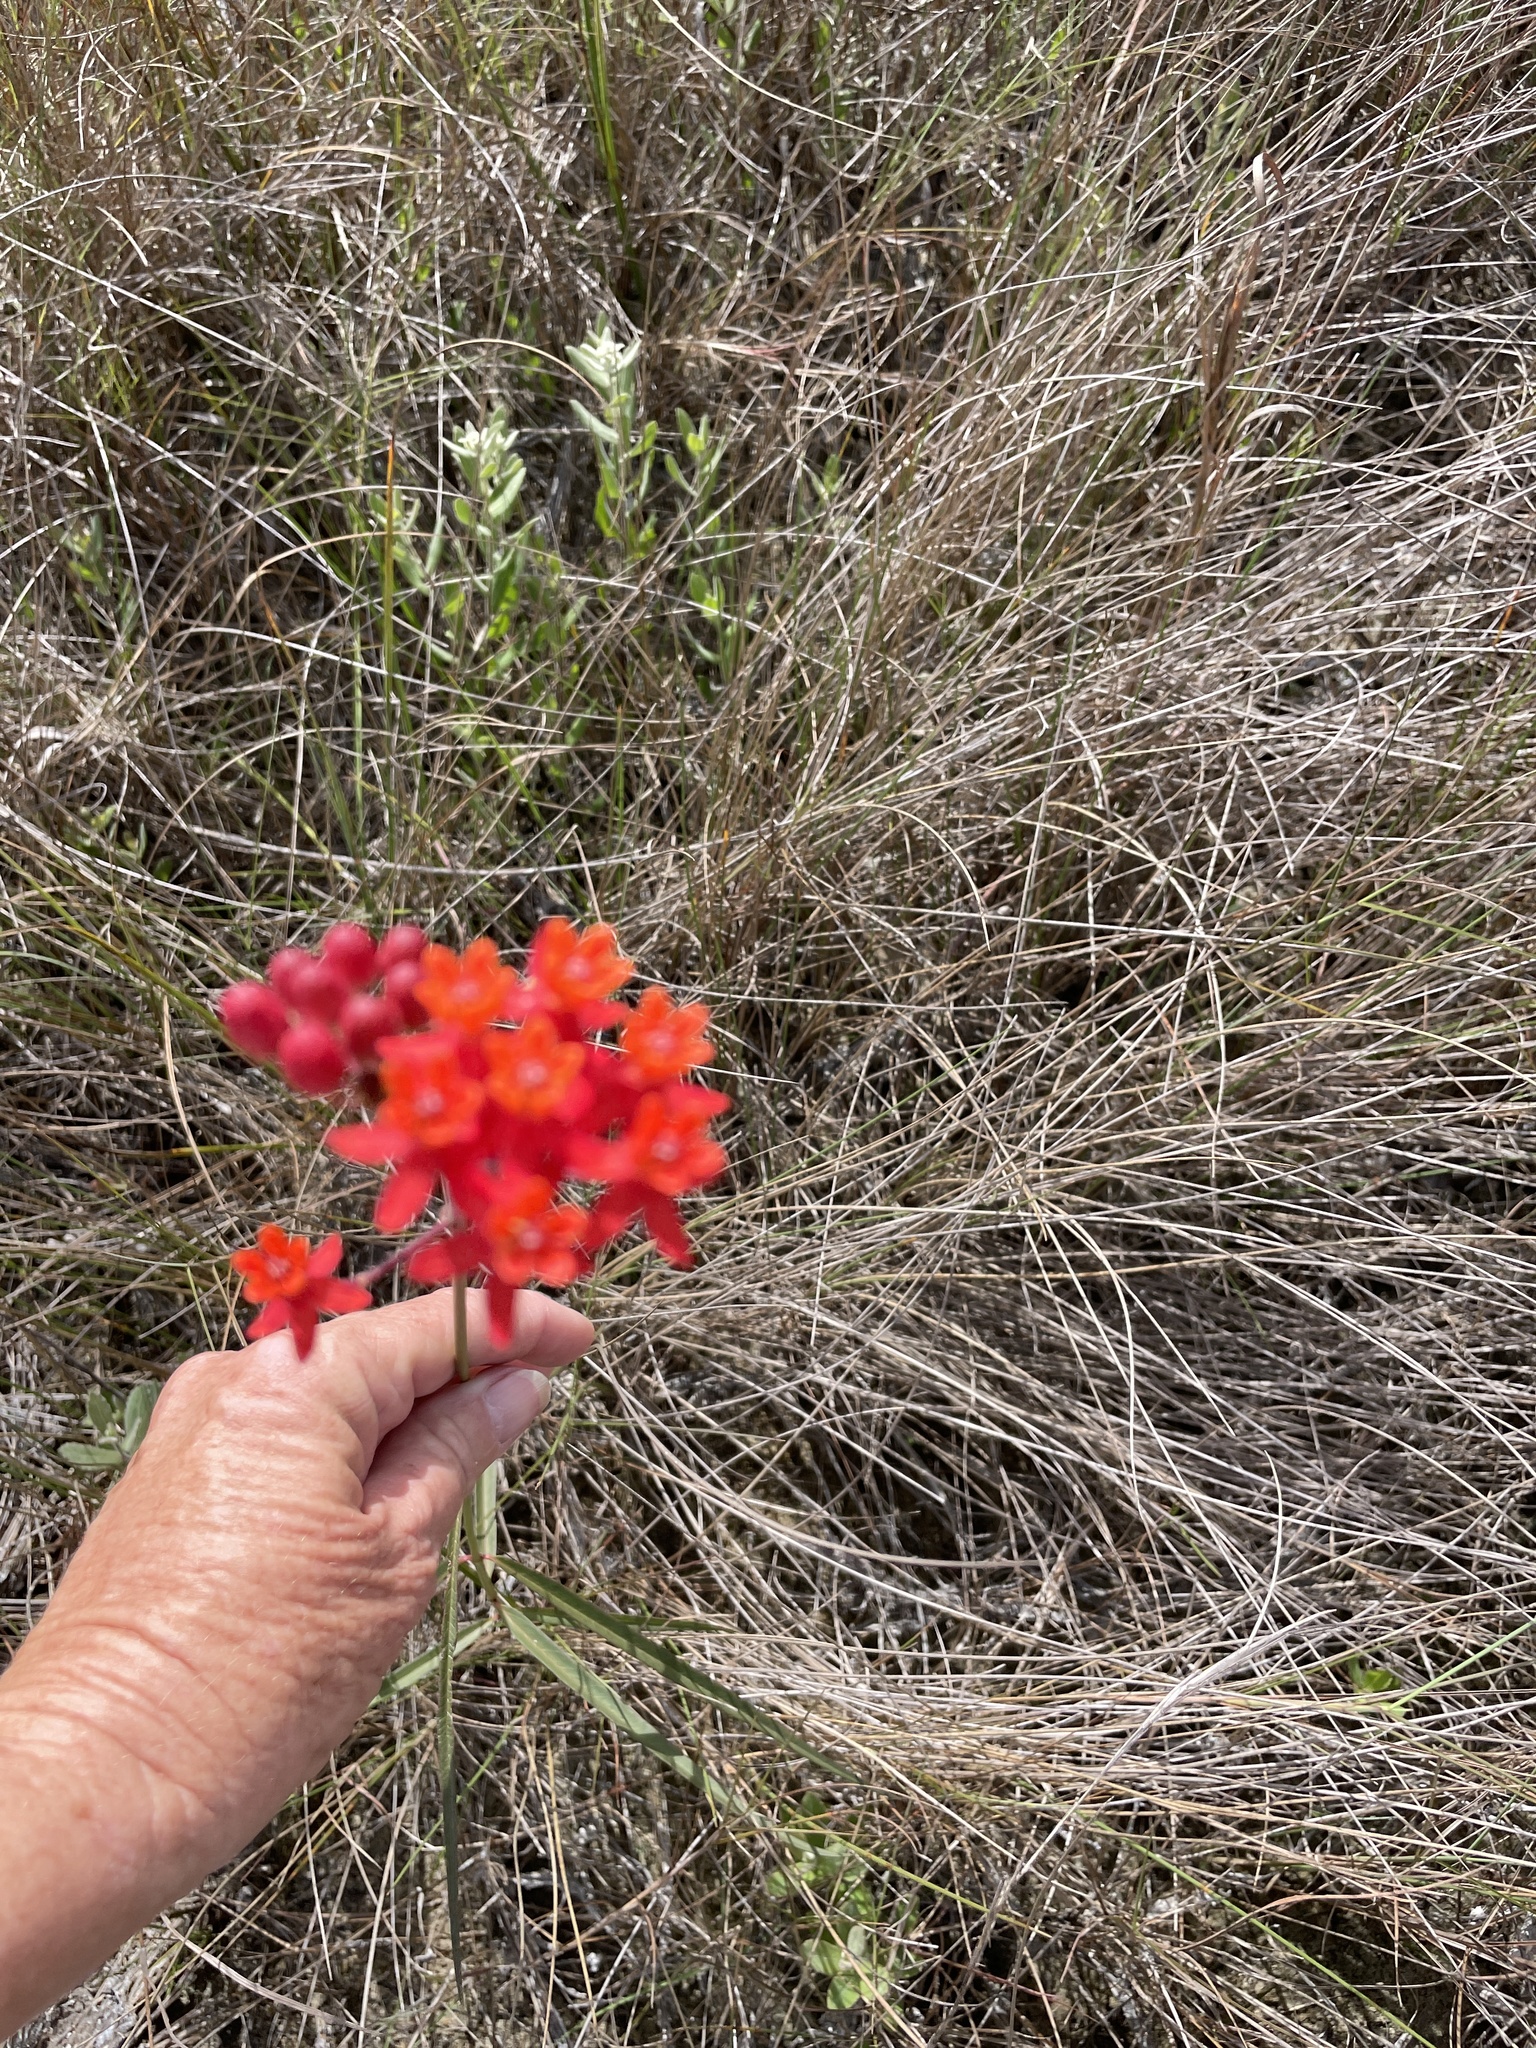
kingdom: Plantae
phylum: Tracheophyta
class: Magnoliopsida
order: Gentianales
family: Apocynaceae
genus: Asclepias
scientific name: Asclepias lanceolata
